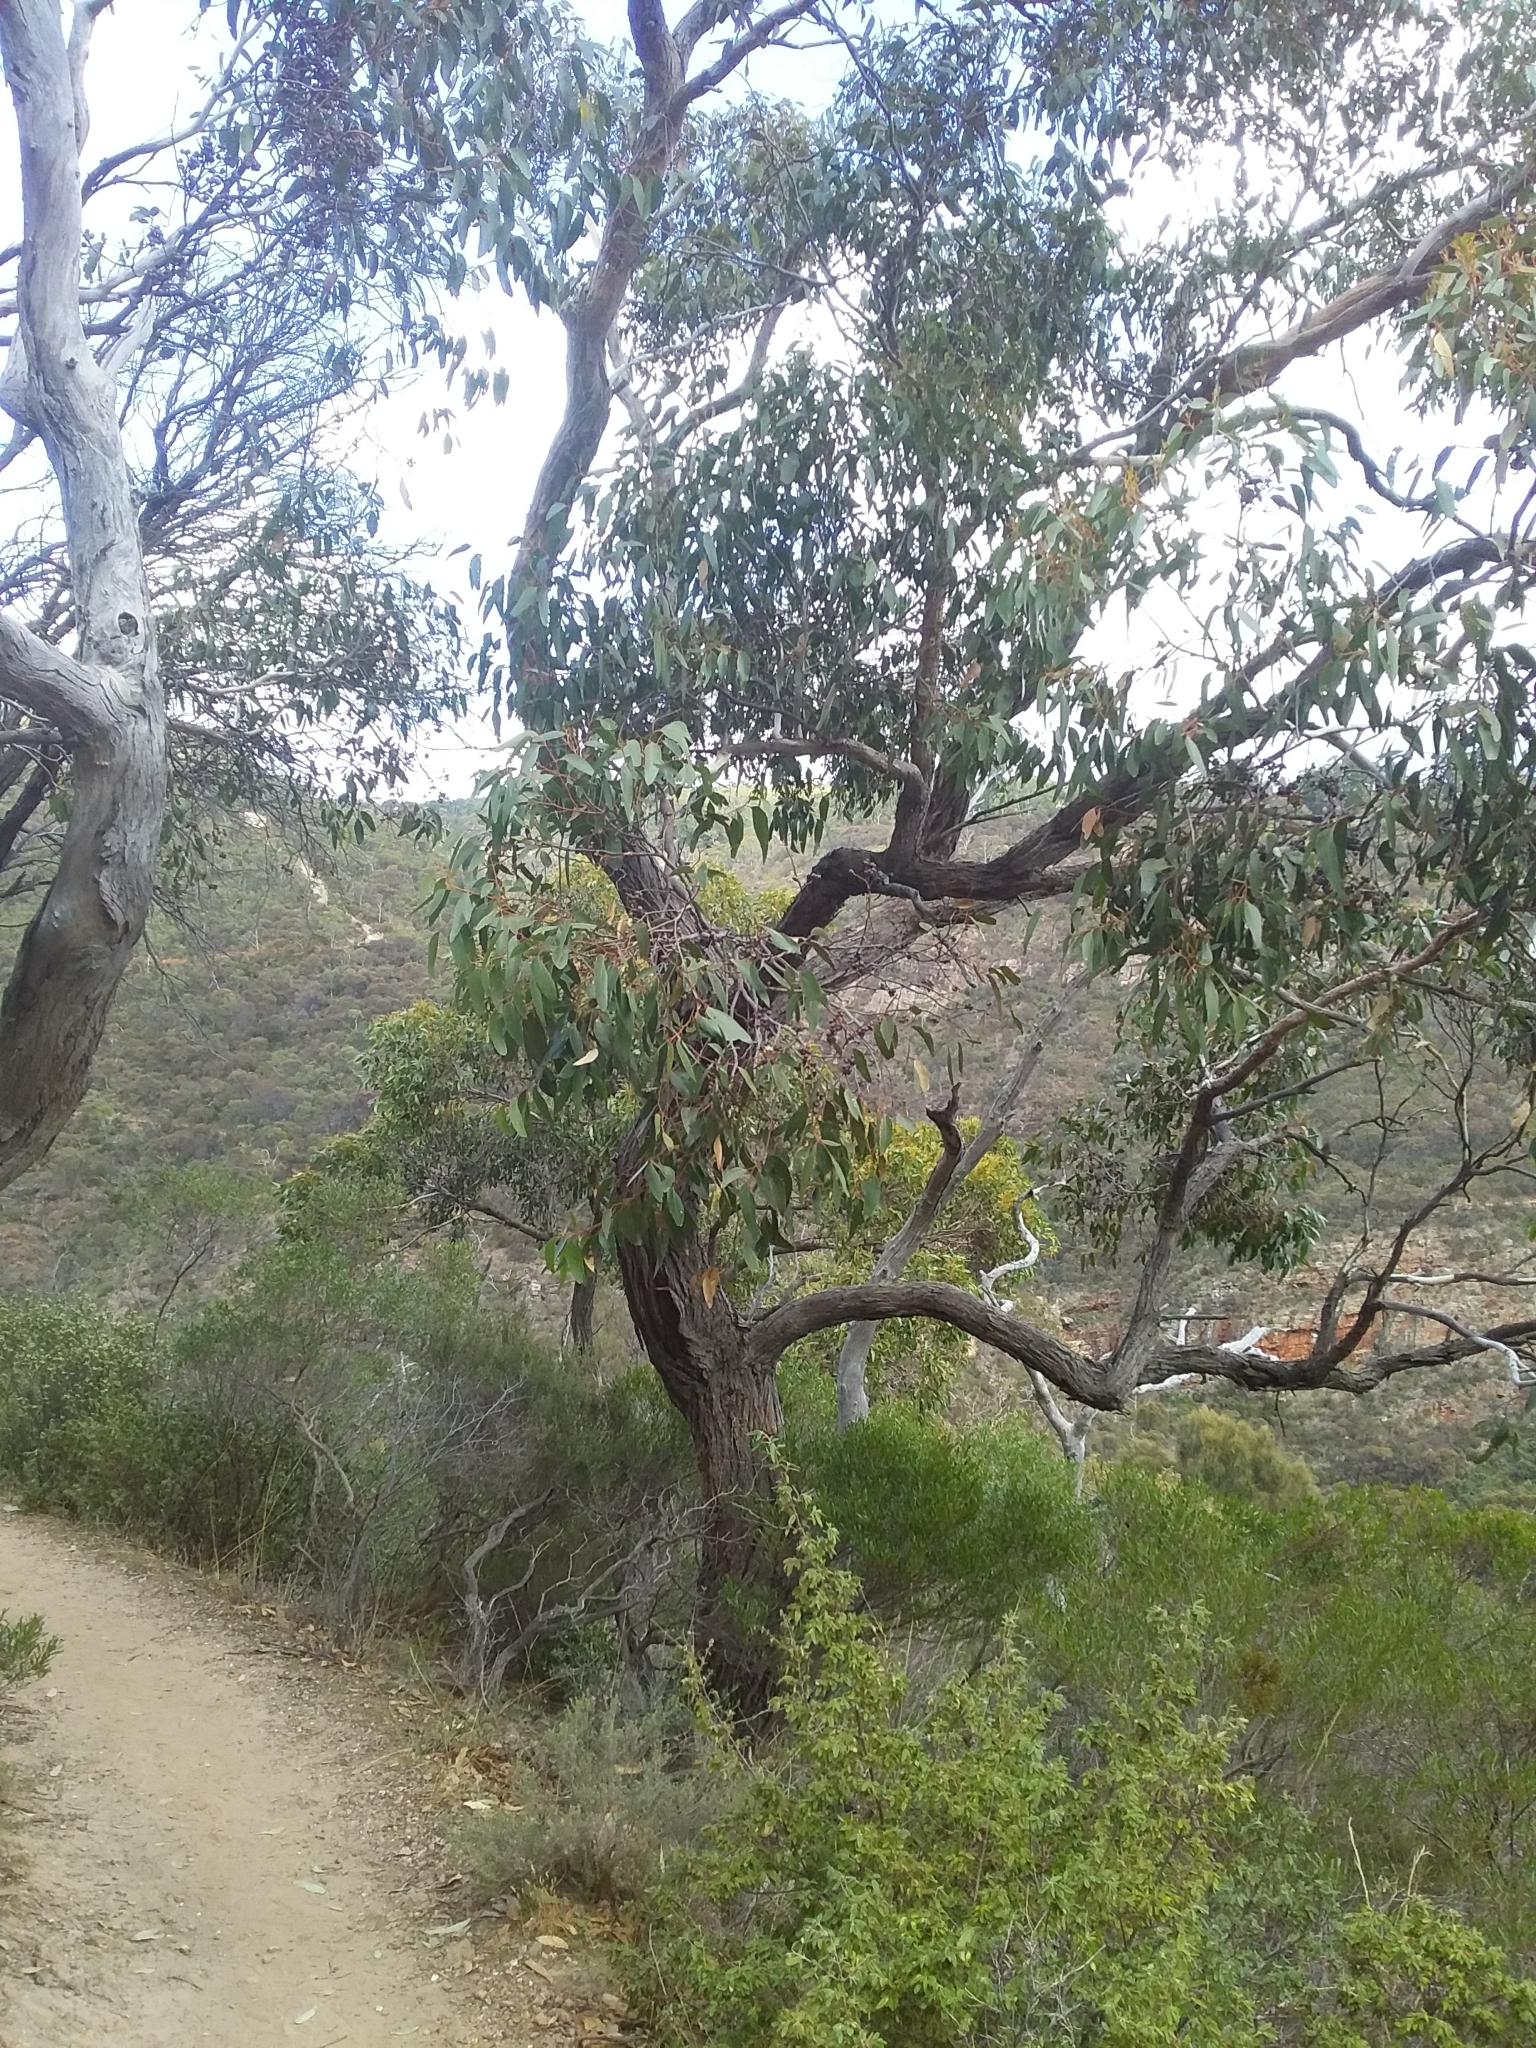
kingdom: Plantae
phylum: Tracheophyta
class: Magnoliopsida
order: Myrtales
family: Myrtaceae
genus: Eucalyptus
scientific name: Eucalyptus baxteri
